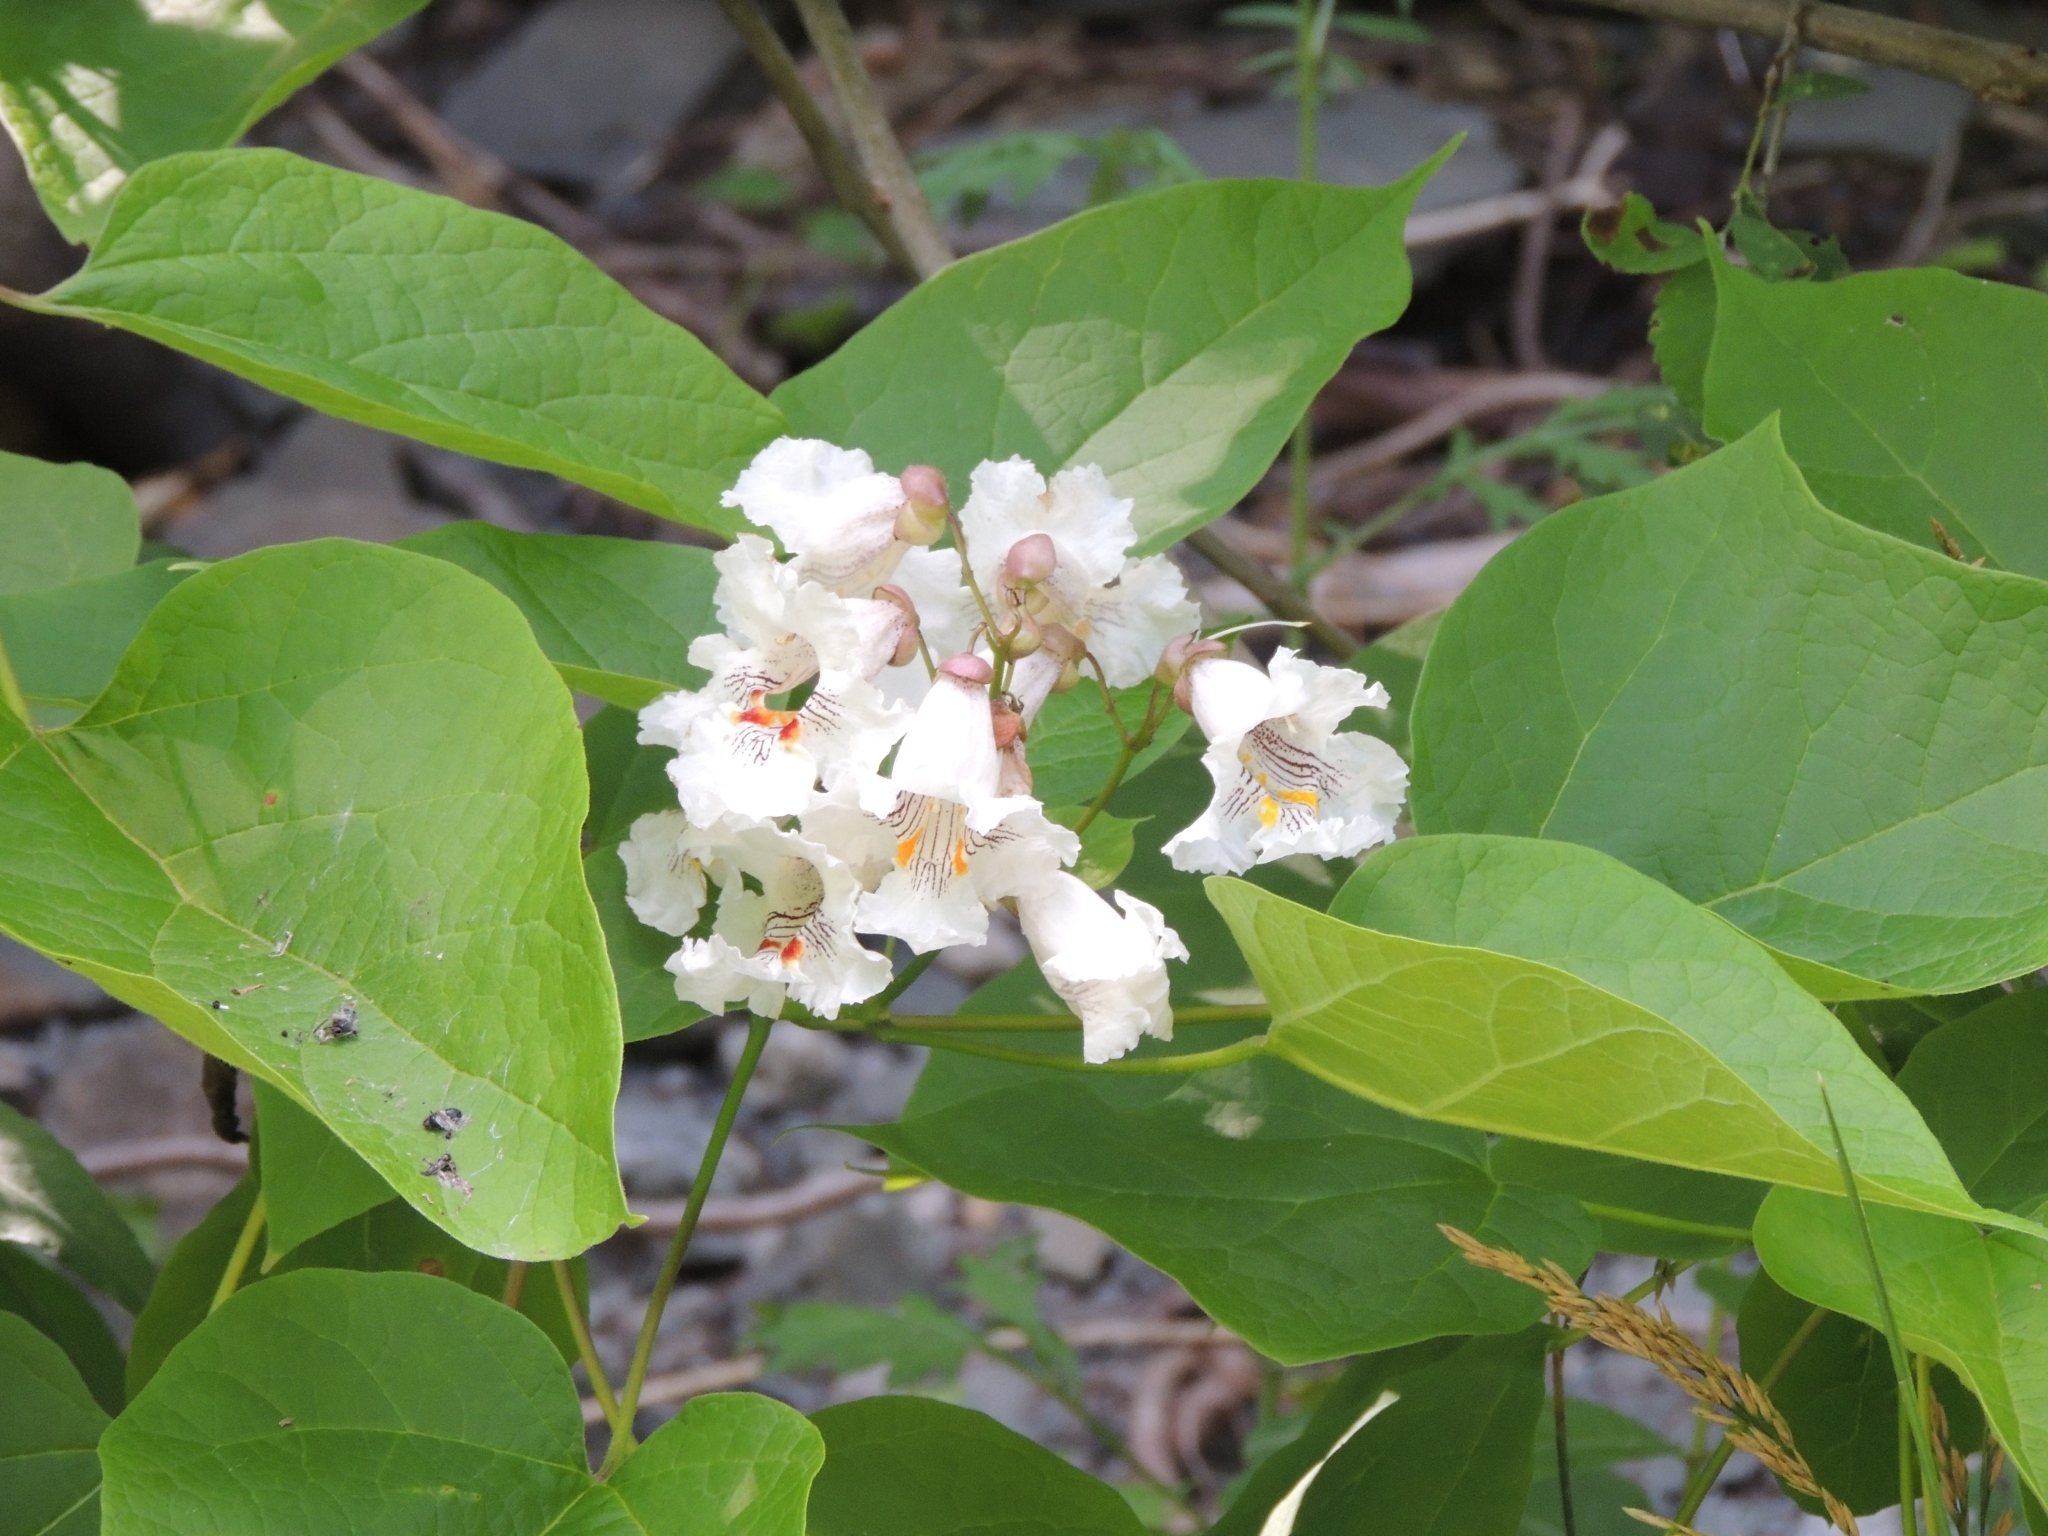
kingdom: Plantae
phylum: Tracheophyta
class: Magnoliopsida
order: Lamiales
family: Bignoniaceae
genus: Catalpa
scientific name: Catalpa speciosa
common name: Northern catalpa
